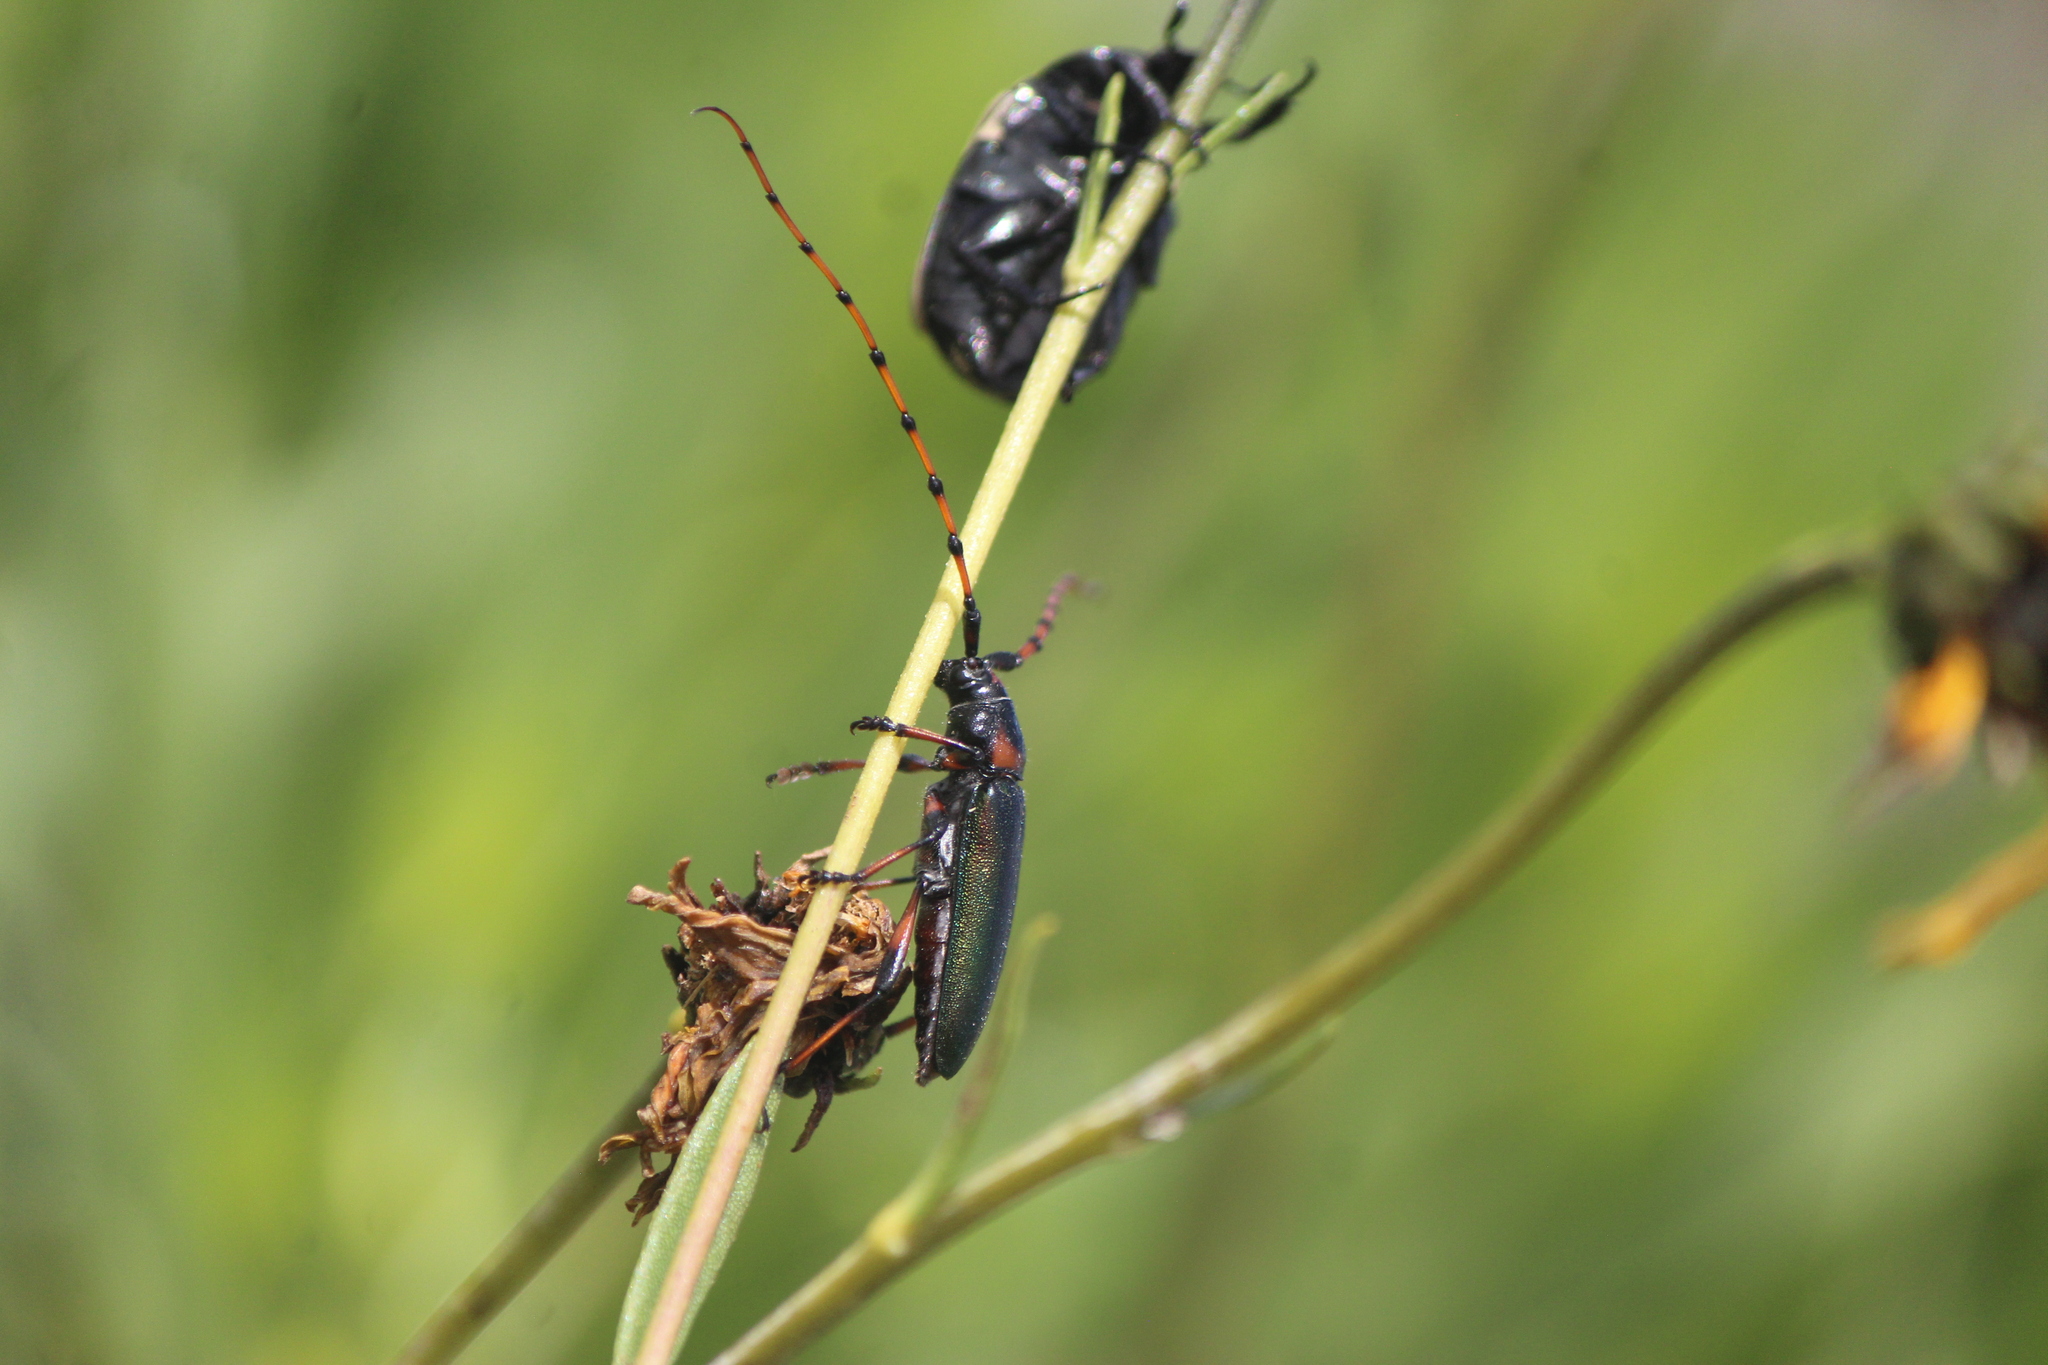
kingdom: Animalia
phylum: Arthropoda
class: Insecta
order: Coleoptera
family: Cerambycidae
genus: Stenaspis
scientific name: Stenaspis verticalis
